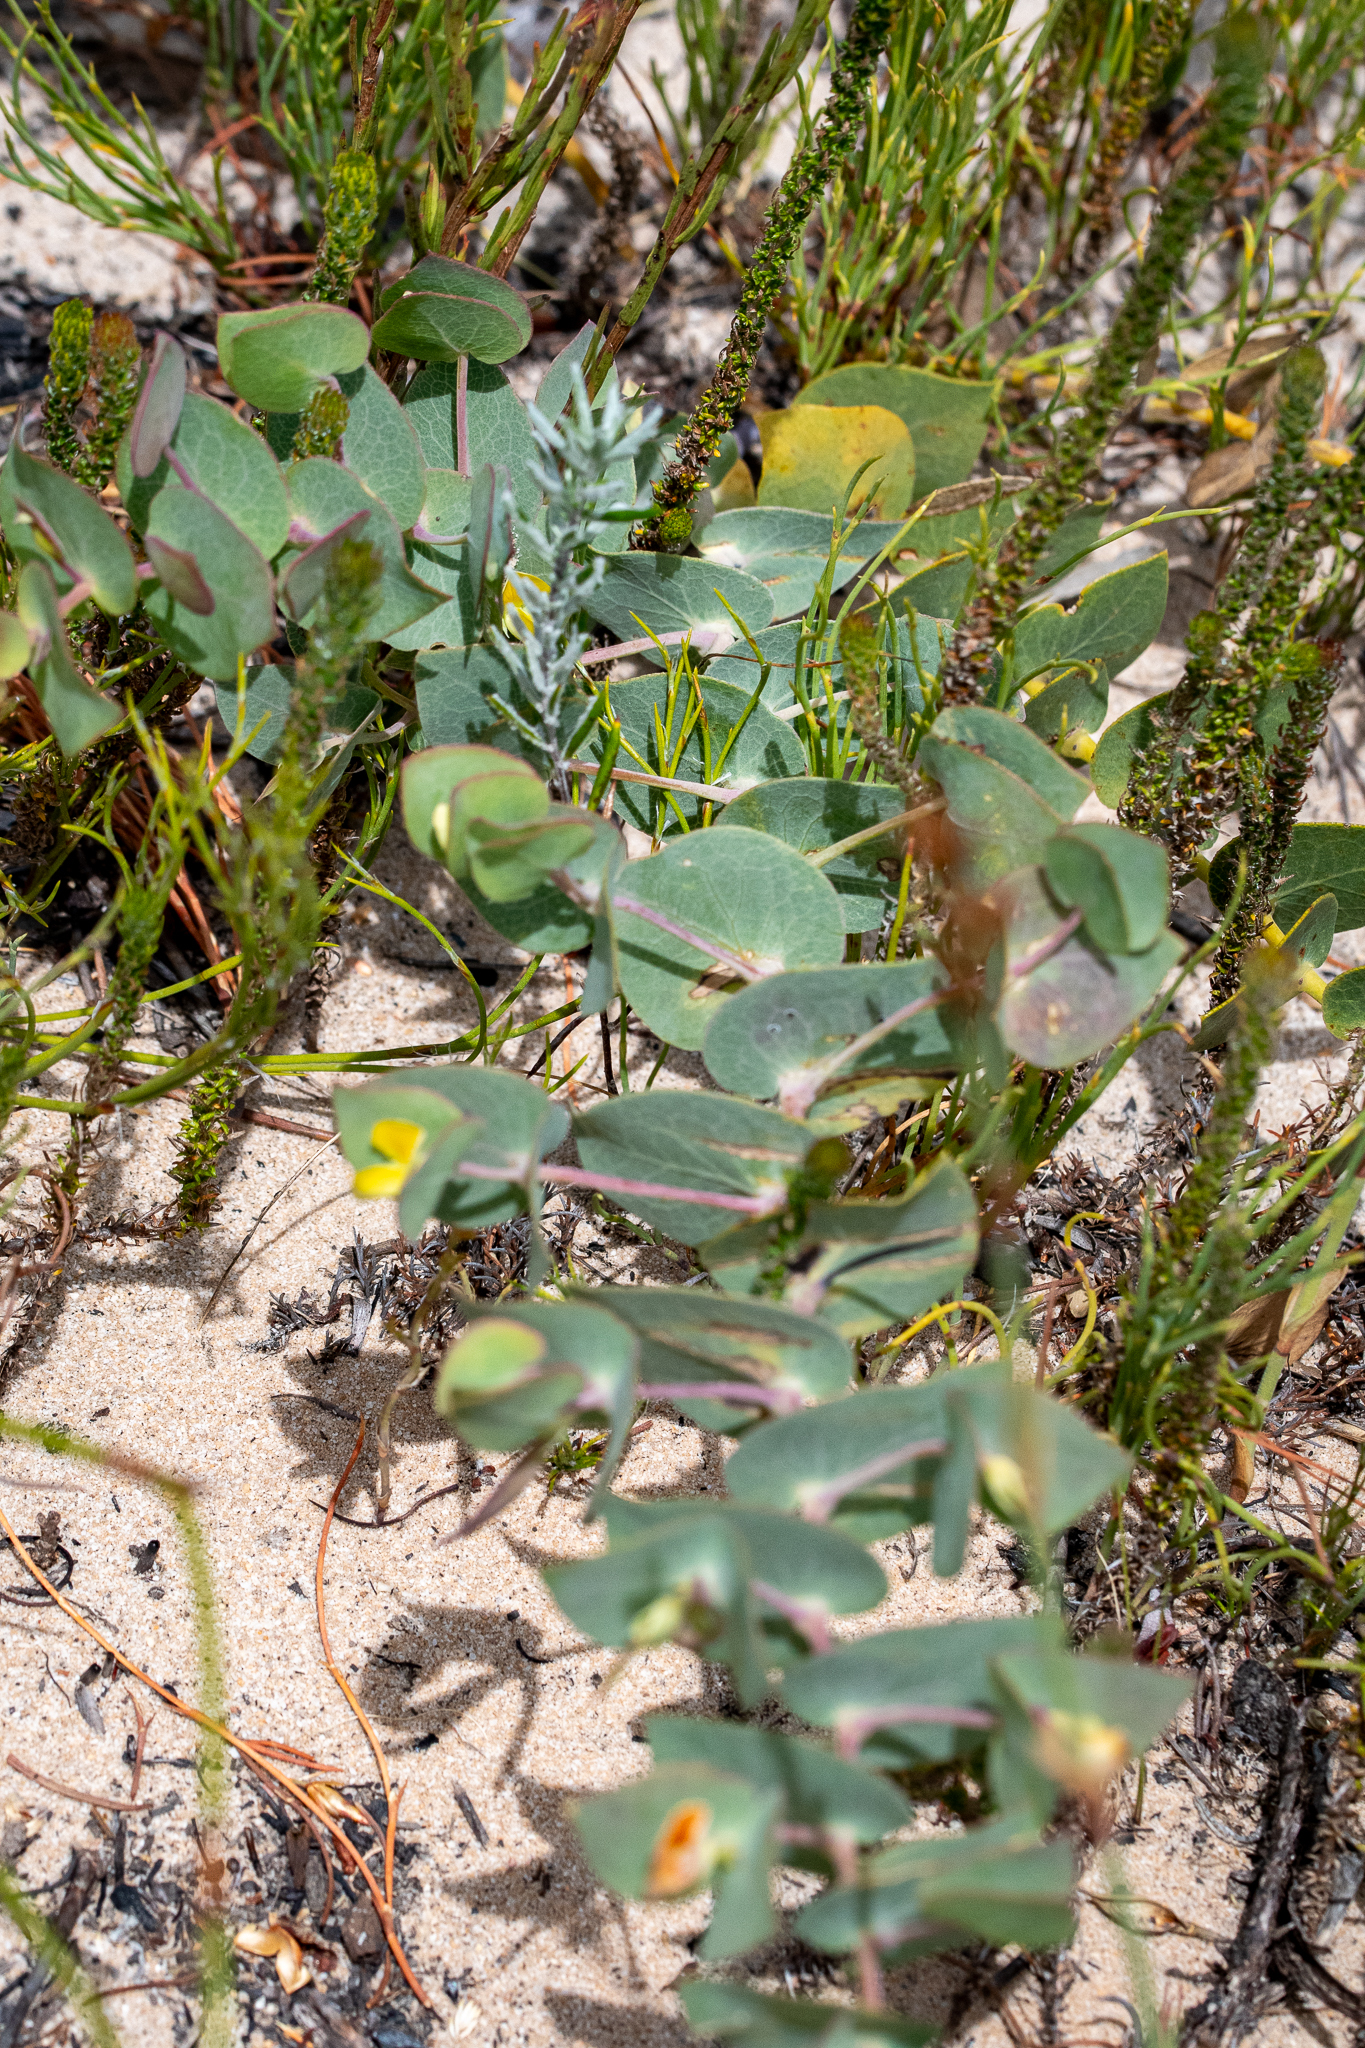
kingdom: Plantae
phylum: Tracheophyta
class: Magnoliopsida
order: Fabales
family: Fabaceae
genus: Rafnia
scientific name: Rafnia acuminata
